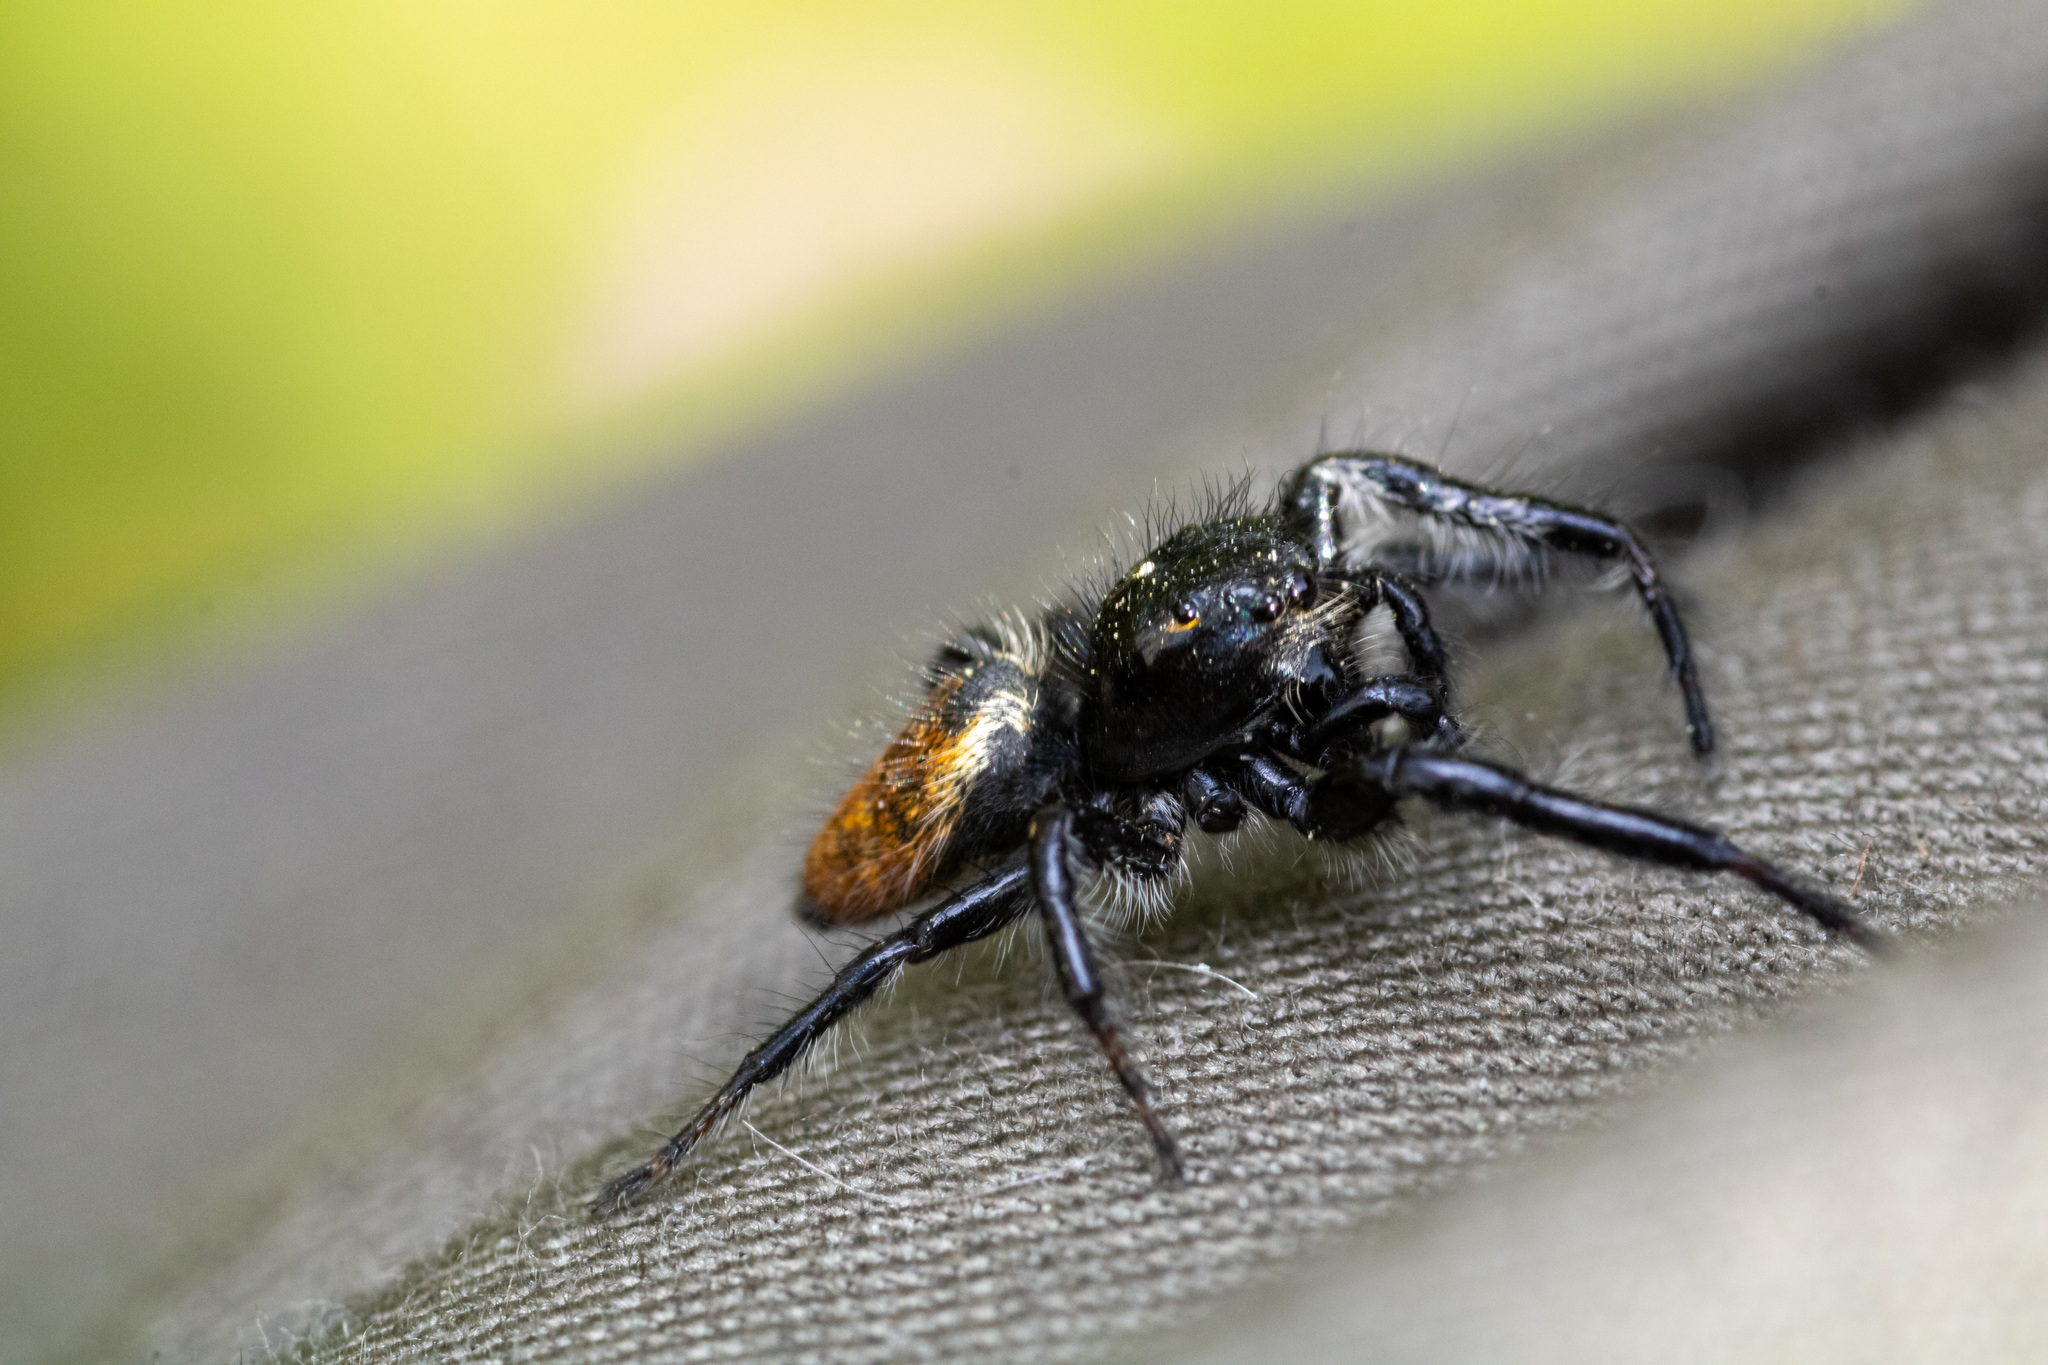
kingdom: Animalia
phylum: Arthropoda
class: Arachnida
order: Araneae
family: Salticidae
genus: Carrhotus
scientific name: Carrhotus xanthogramma
